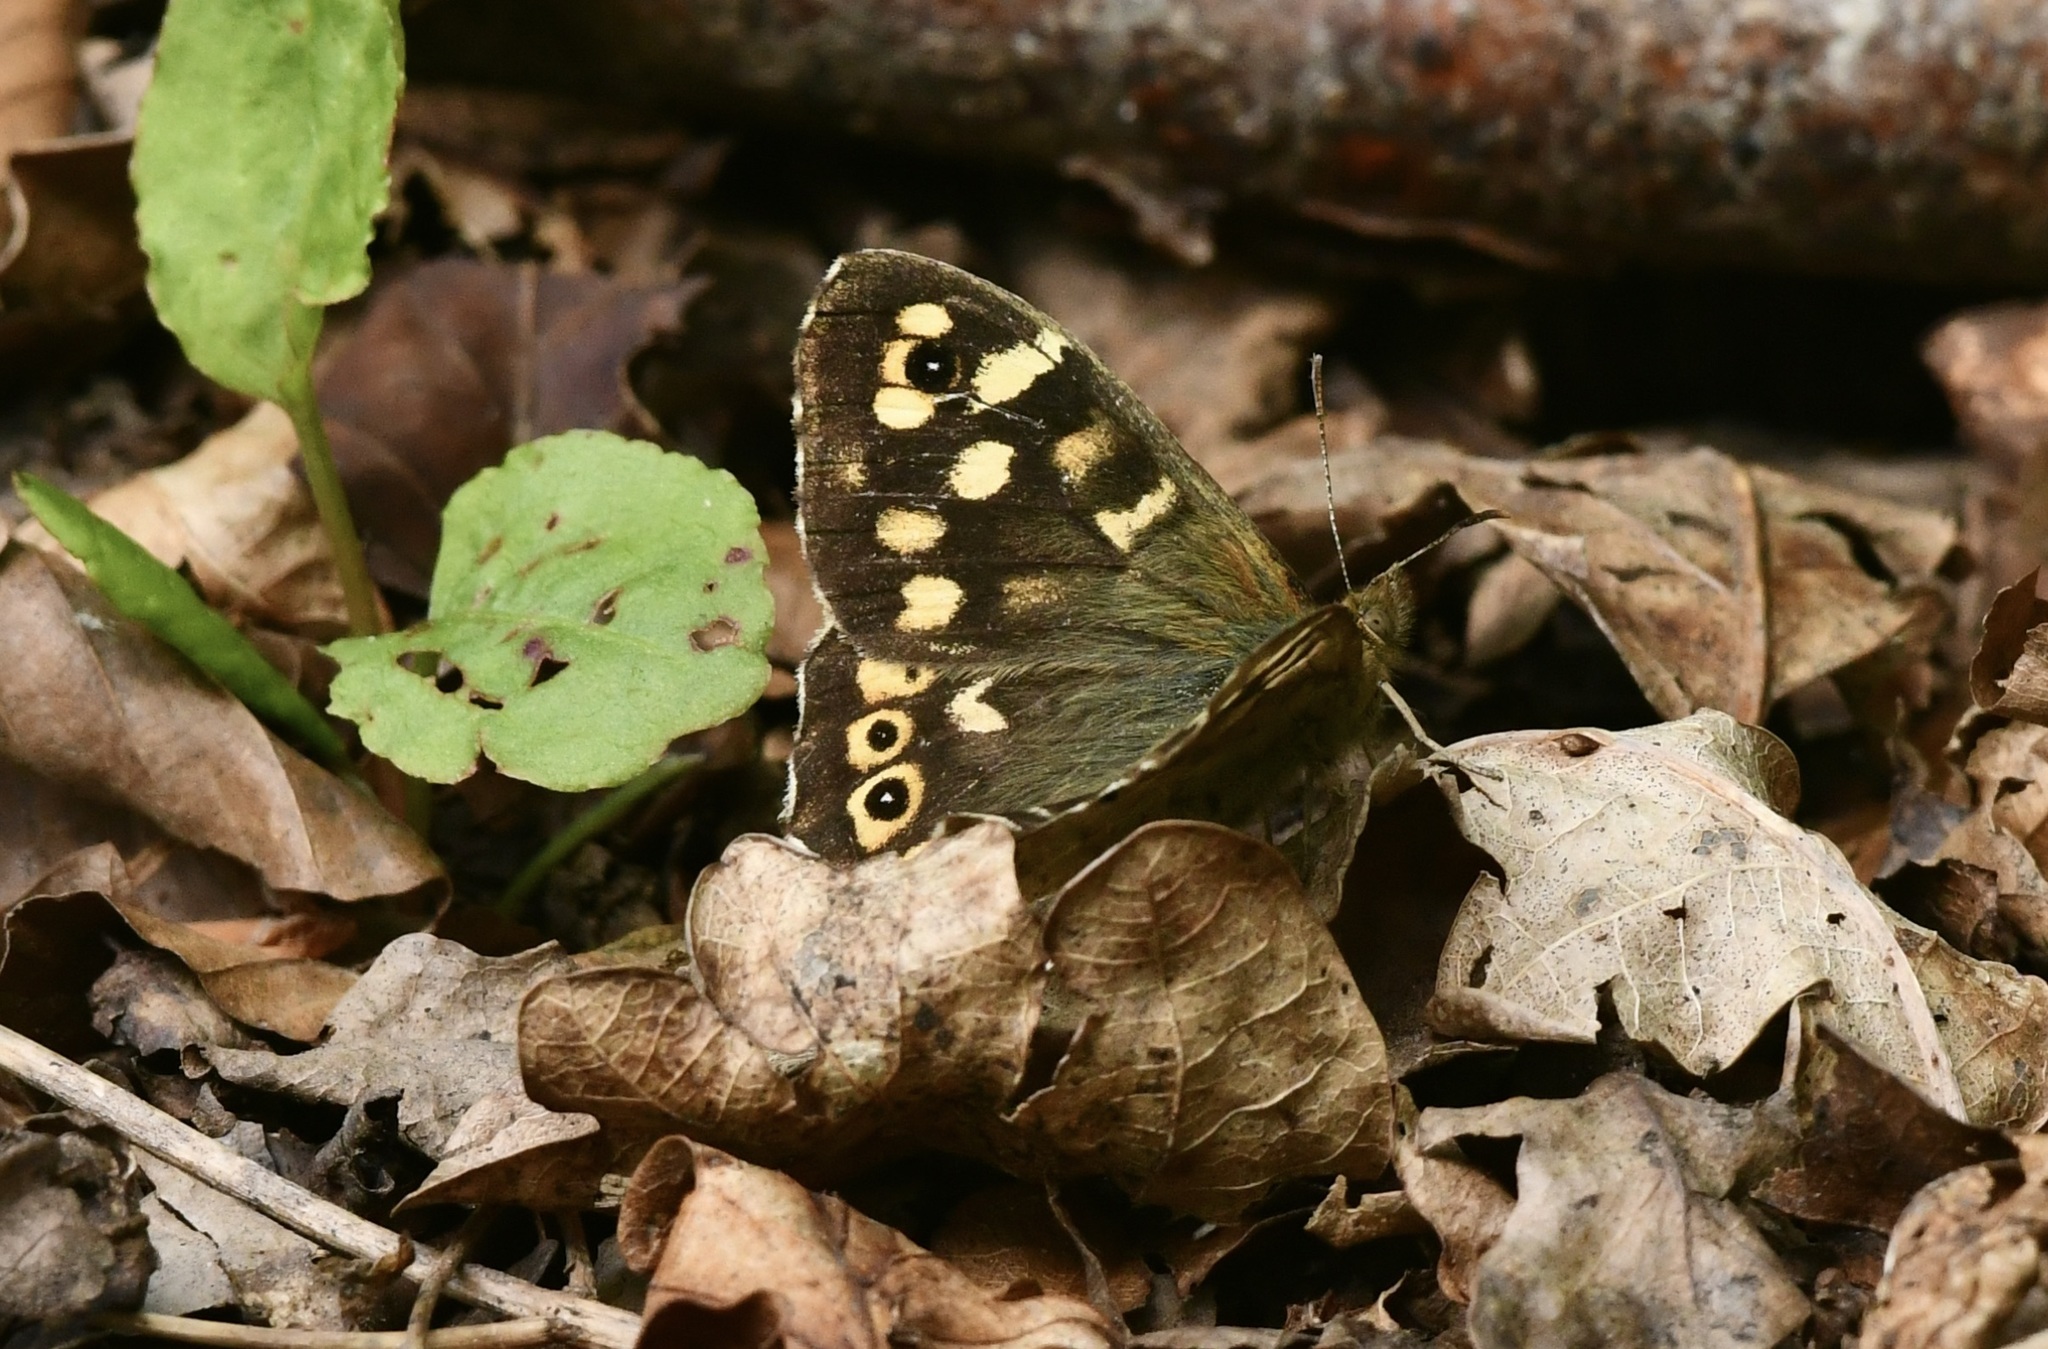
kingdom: Animalia
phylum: Arthropoda
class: Insecta
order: Lepidoptera
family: Nymphalidae
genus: Pararge
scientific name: Pararge aegeria
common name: Speckled wood
